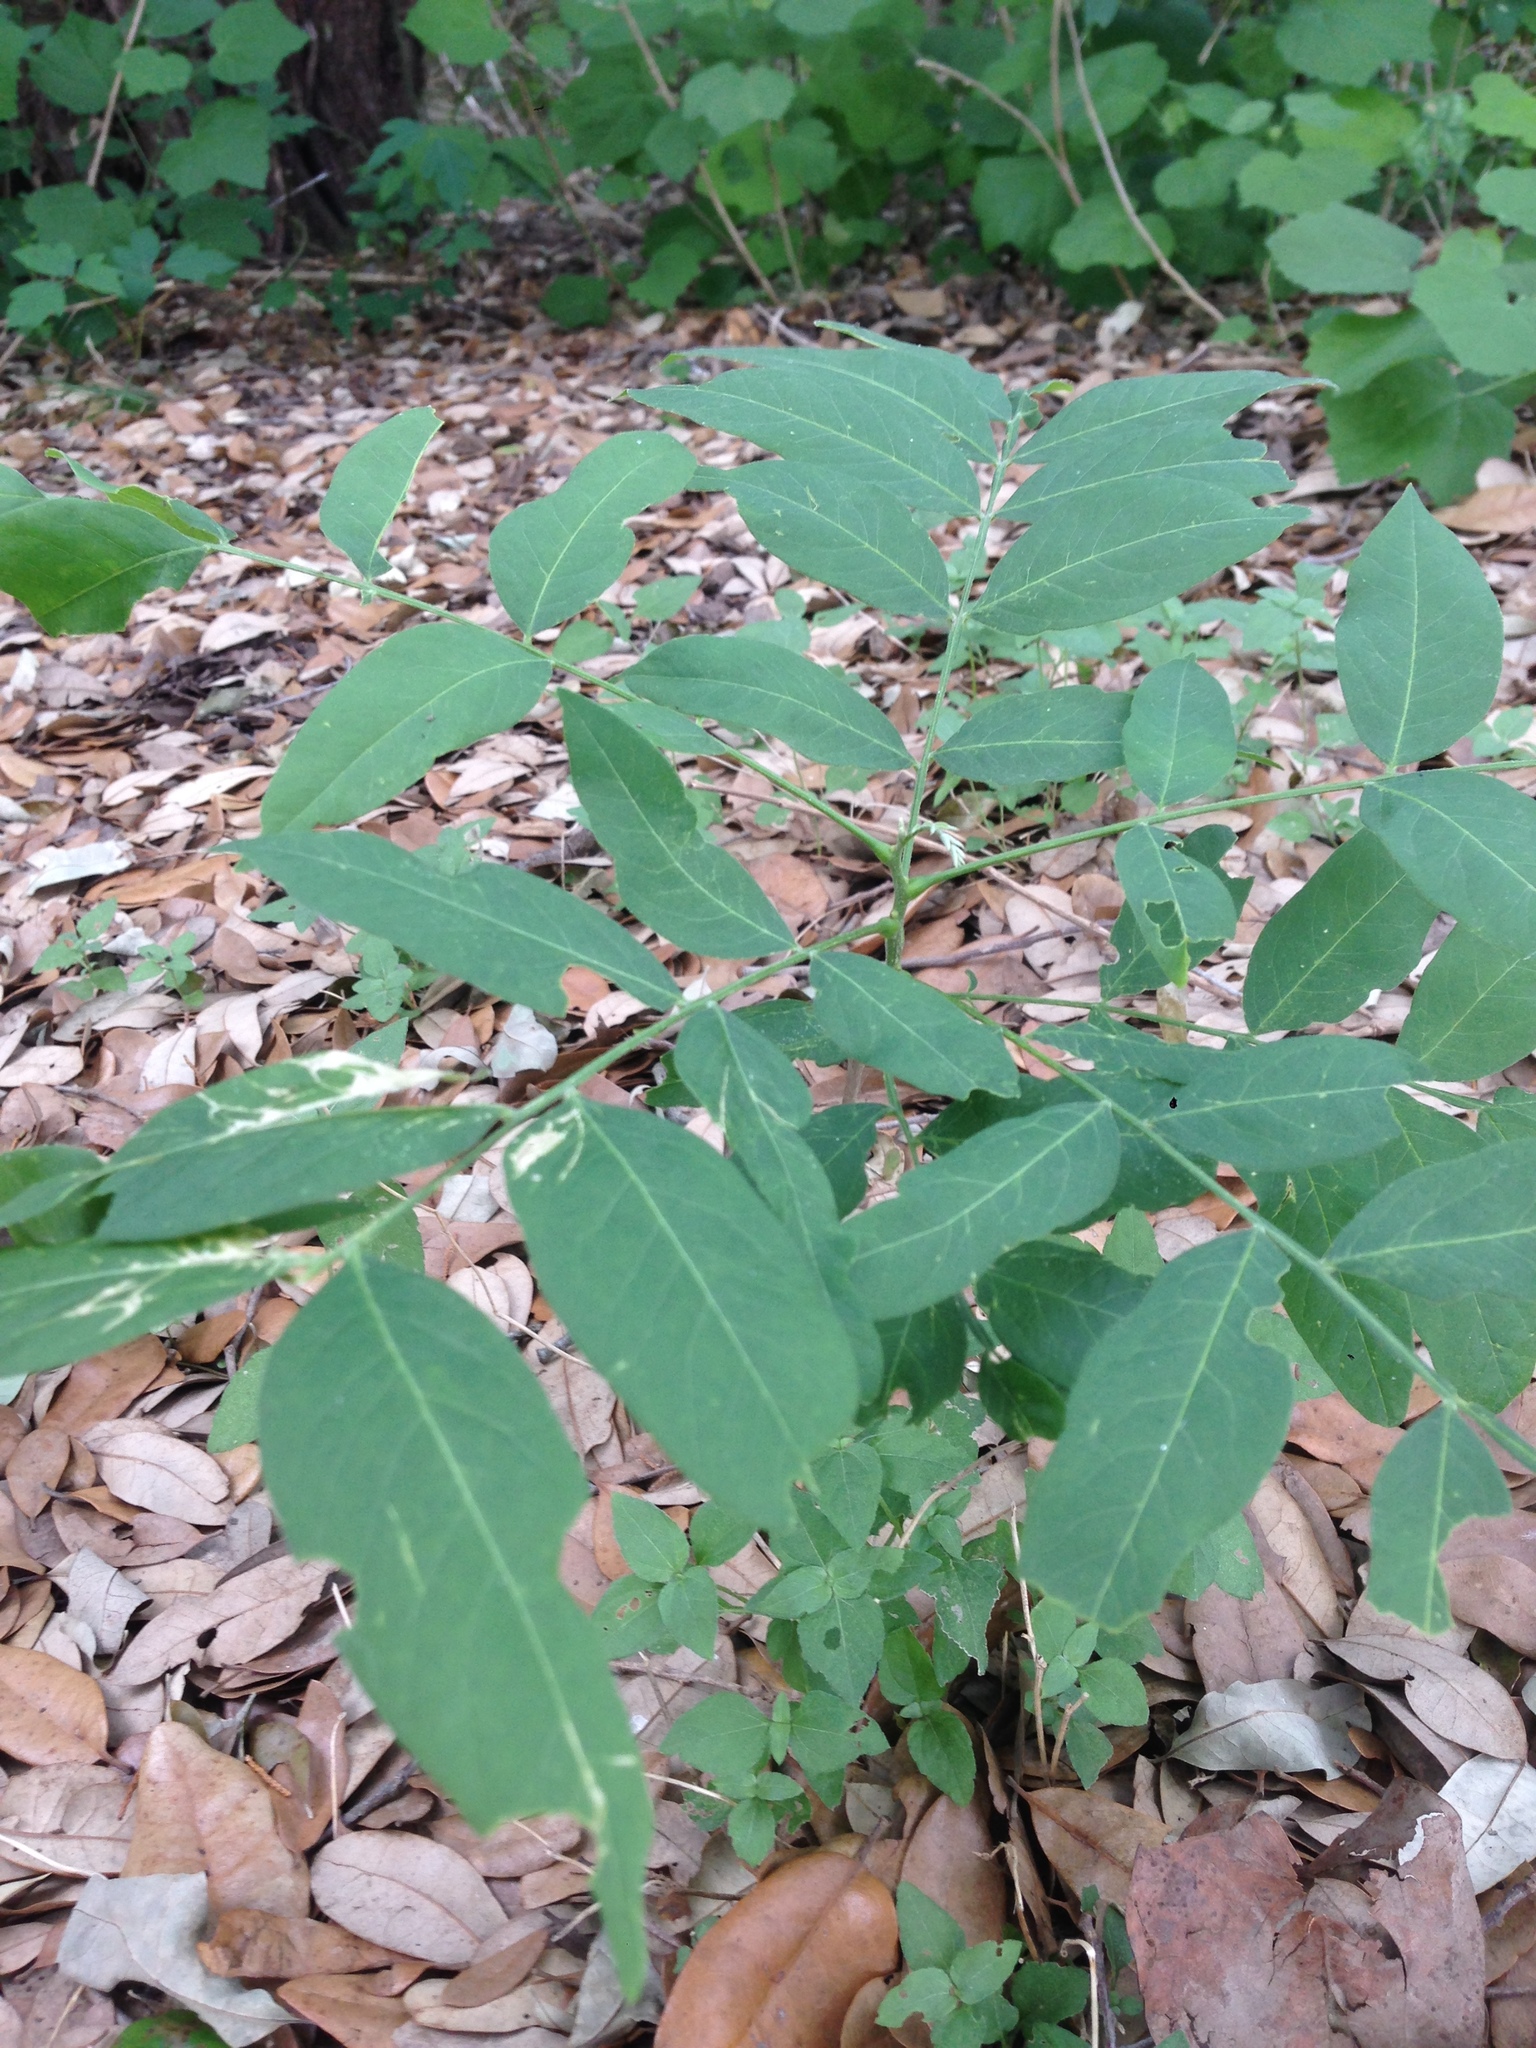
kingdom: Plantae
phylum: Tracheophyta
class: Magnoliopsida
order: Sapindales
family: Sapindaceae
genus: Sapindus
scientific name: Sapindus drummondii
